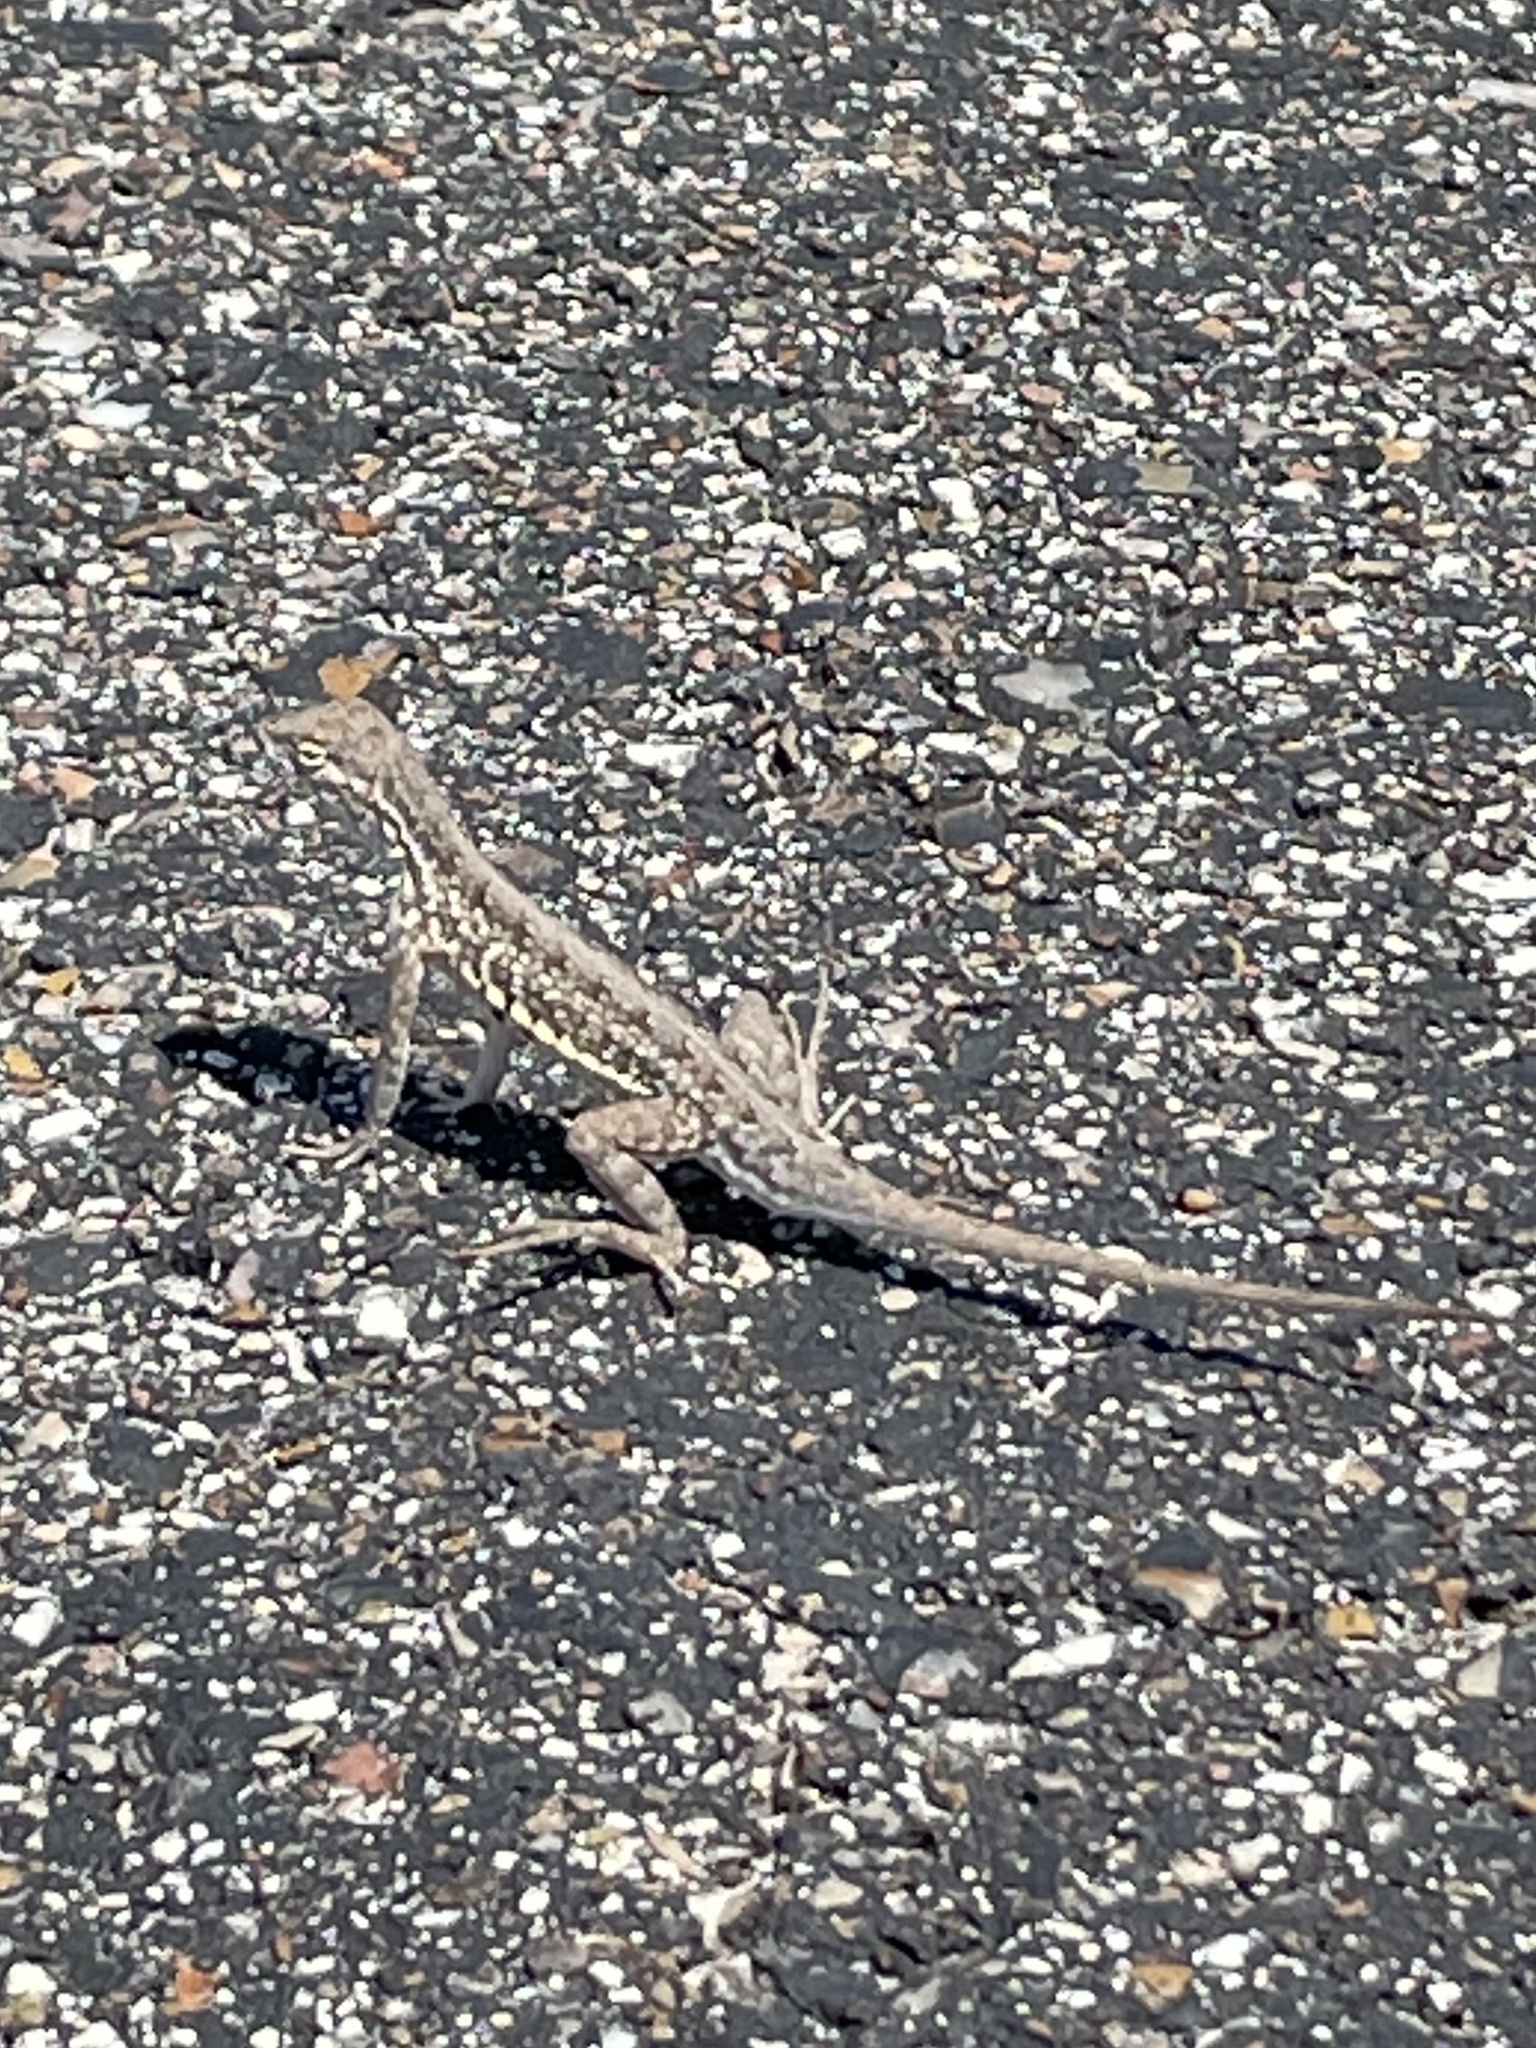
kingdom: Animalia
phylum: Chordata
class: Squamata
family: Phrynosomatidae
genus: Holbrookia
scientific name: Holbrookia propinqua
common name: Keeled earless lizard
